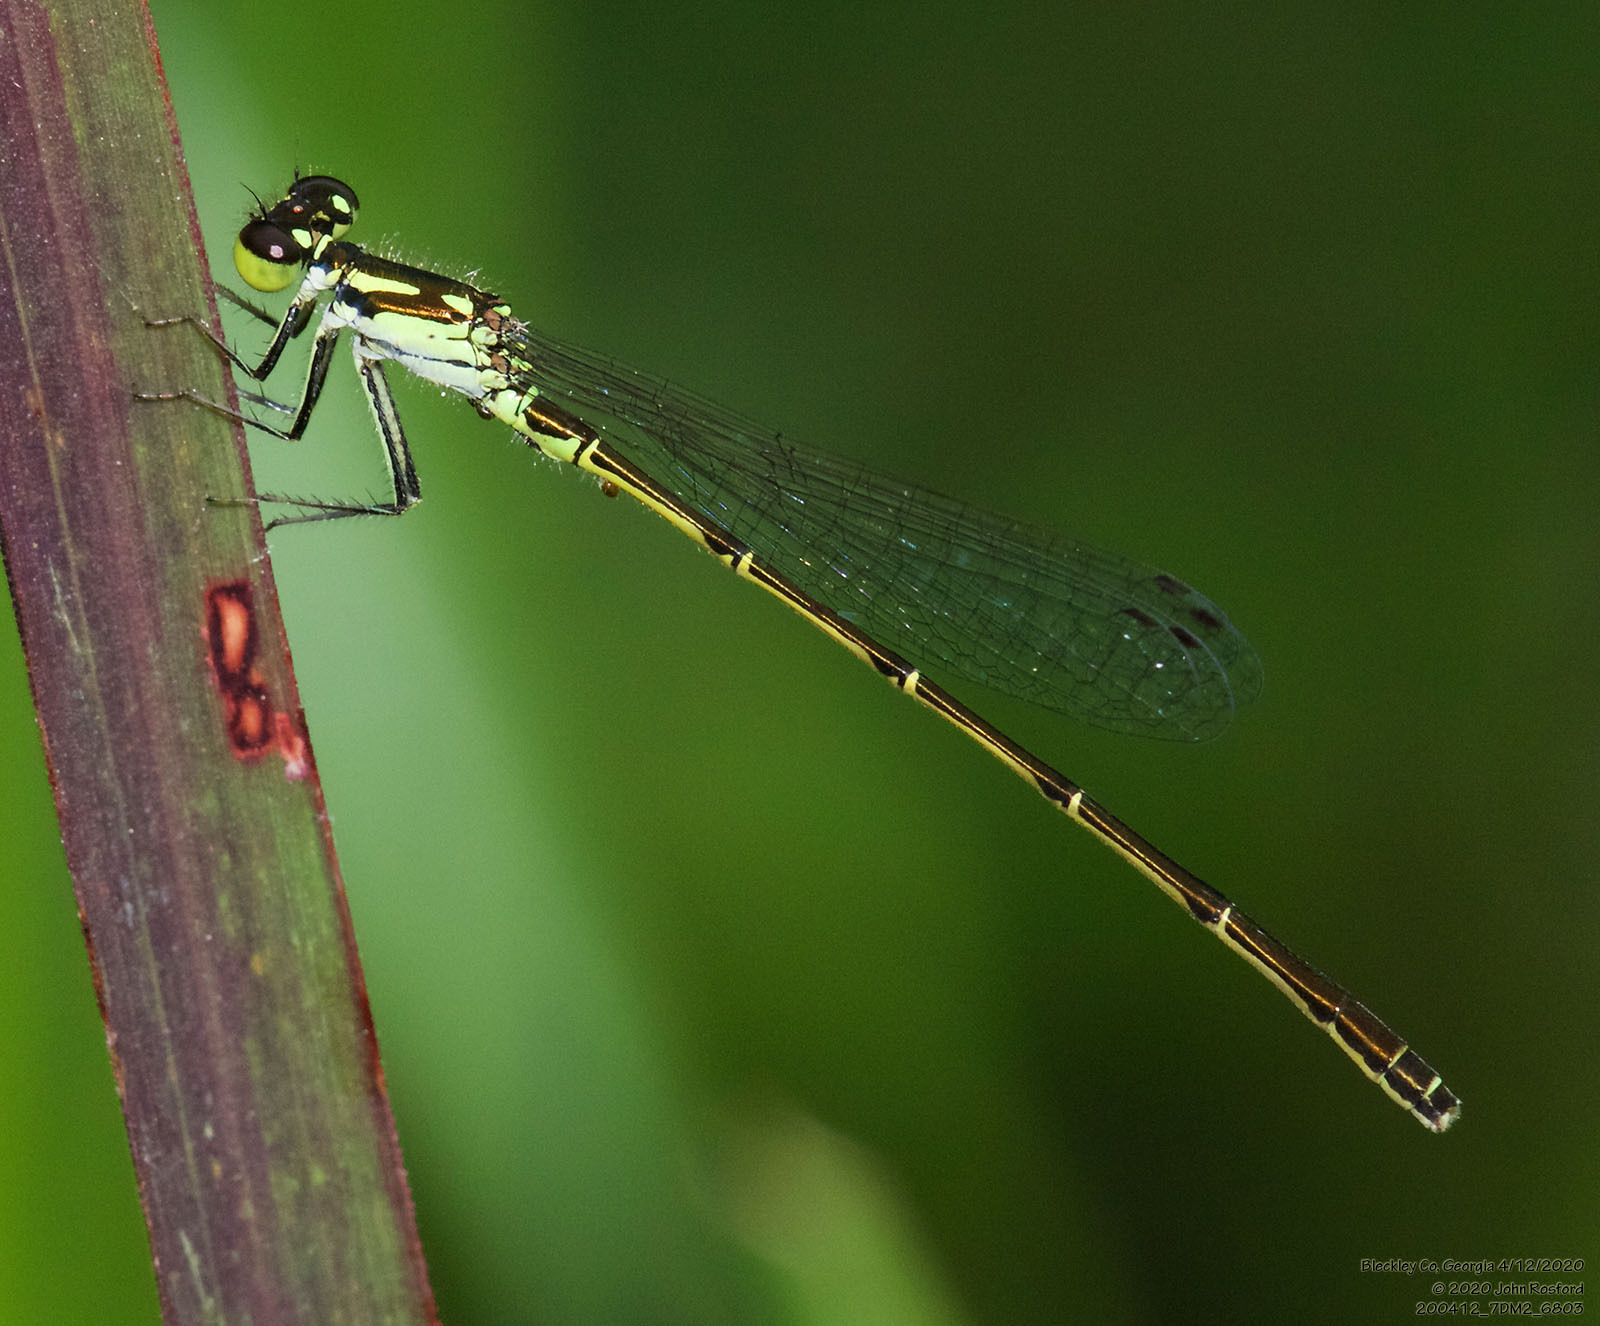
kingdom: Animalia
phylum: Arthropoda
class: Insecta
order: Odonata
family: Coenagrionidae
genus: Ischnura
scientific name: Ischnura posita
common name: Fragile forktail
